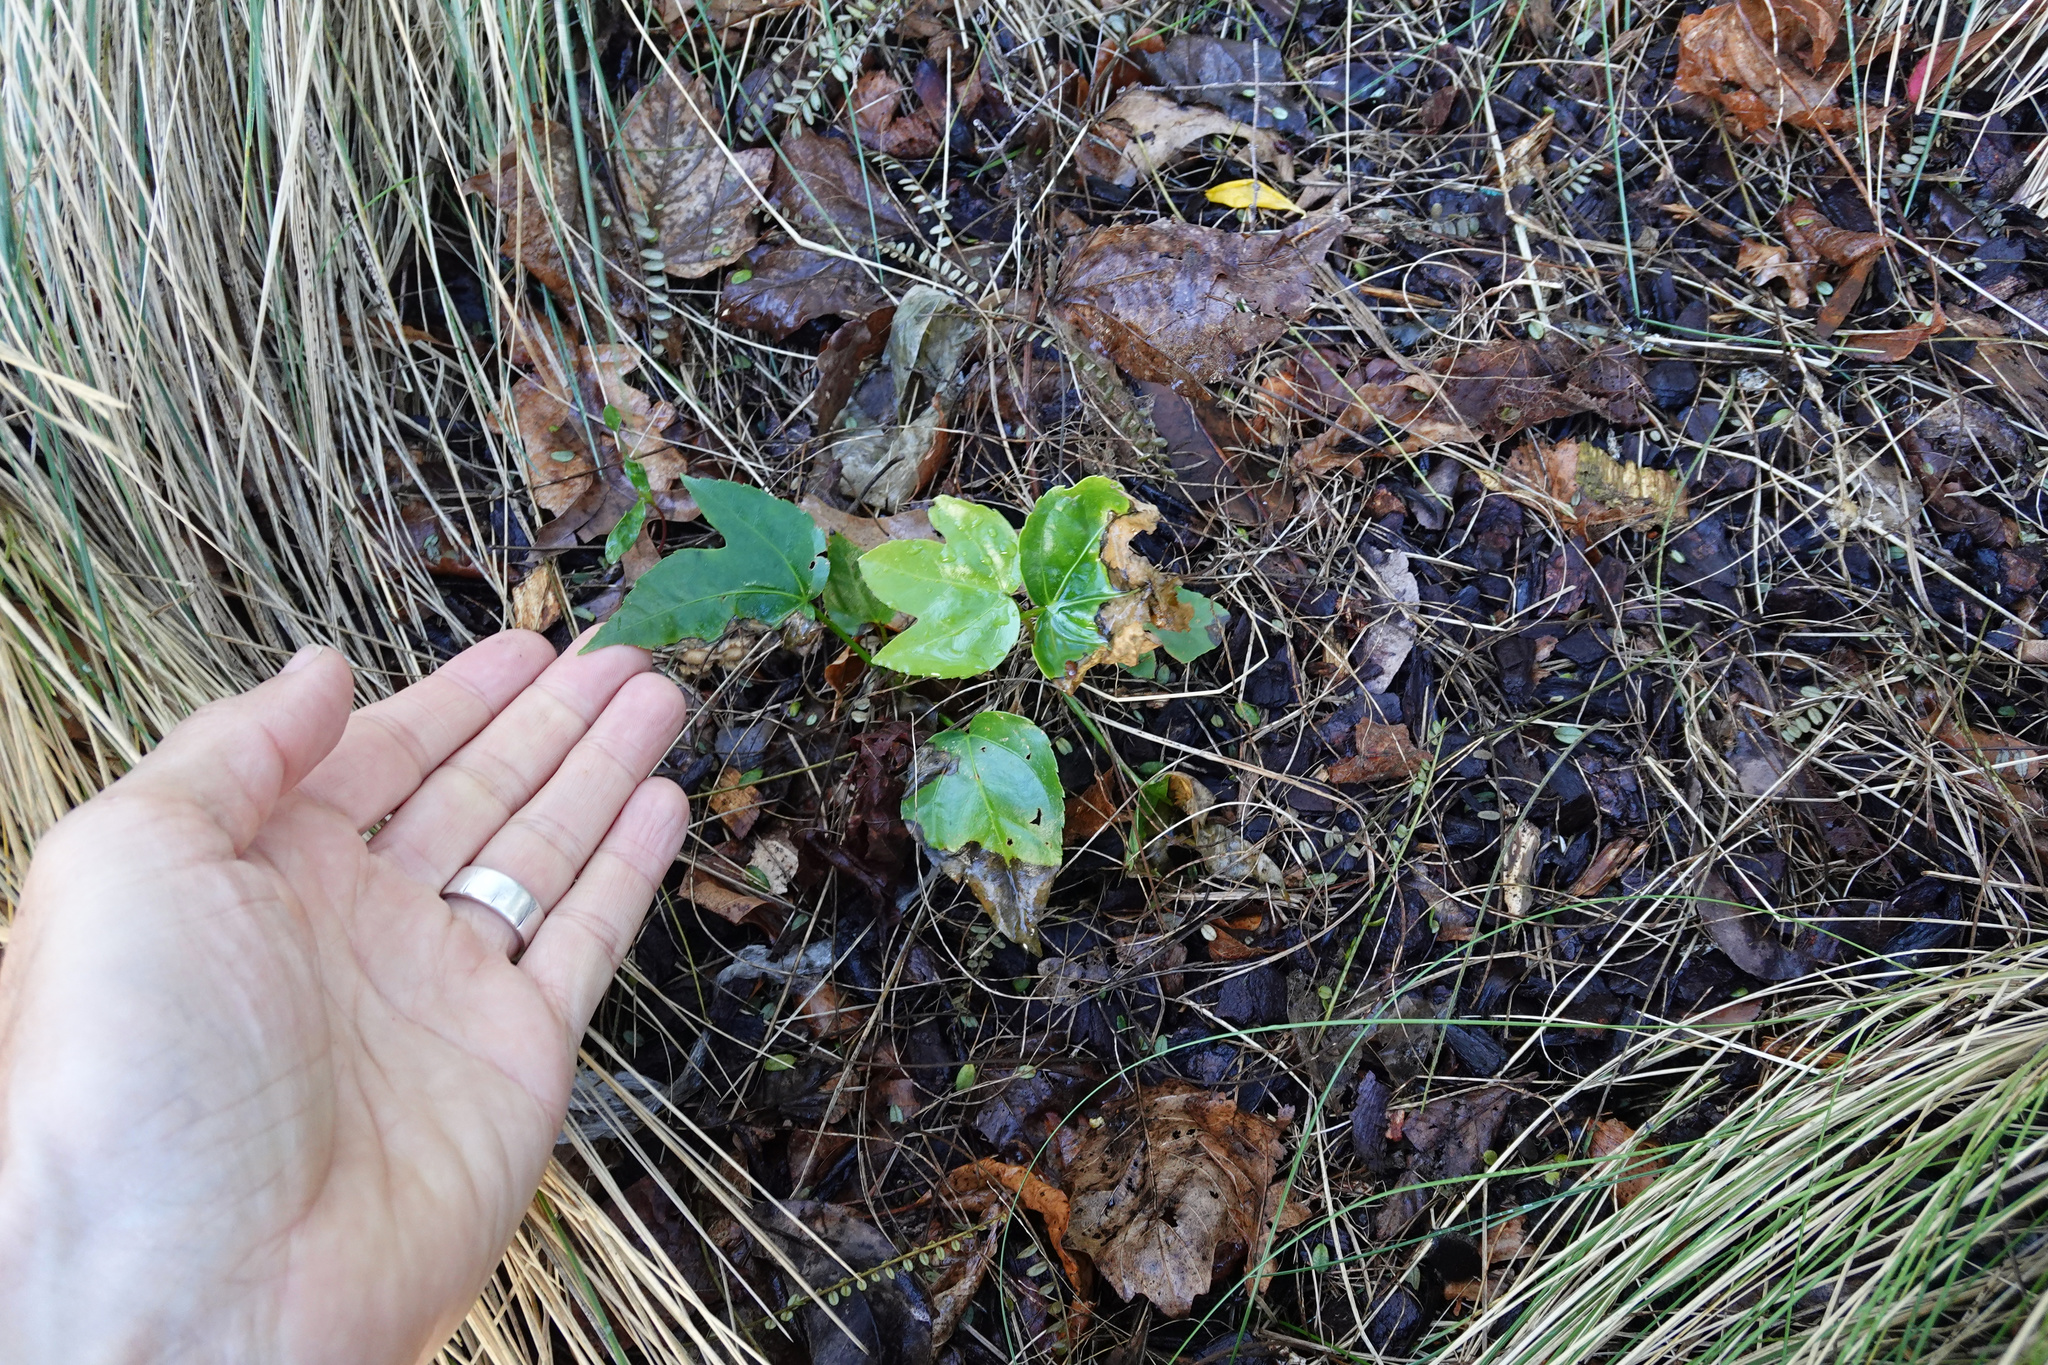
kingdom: Plantae
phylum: Tracheophyta
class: Magnoliopsida
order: Apiales
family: Araliaceae
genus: Fatsia
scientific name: Fatsia japonica
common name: Fatsia
